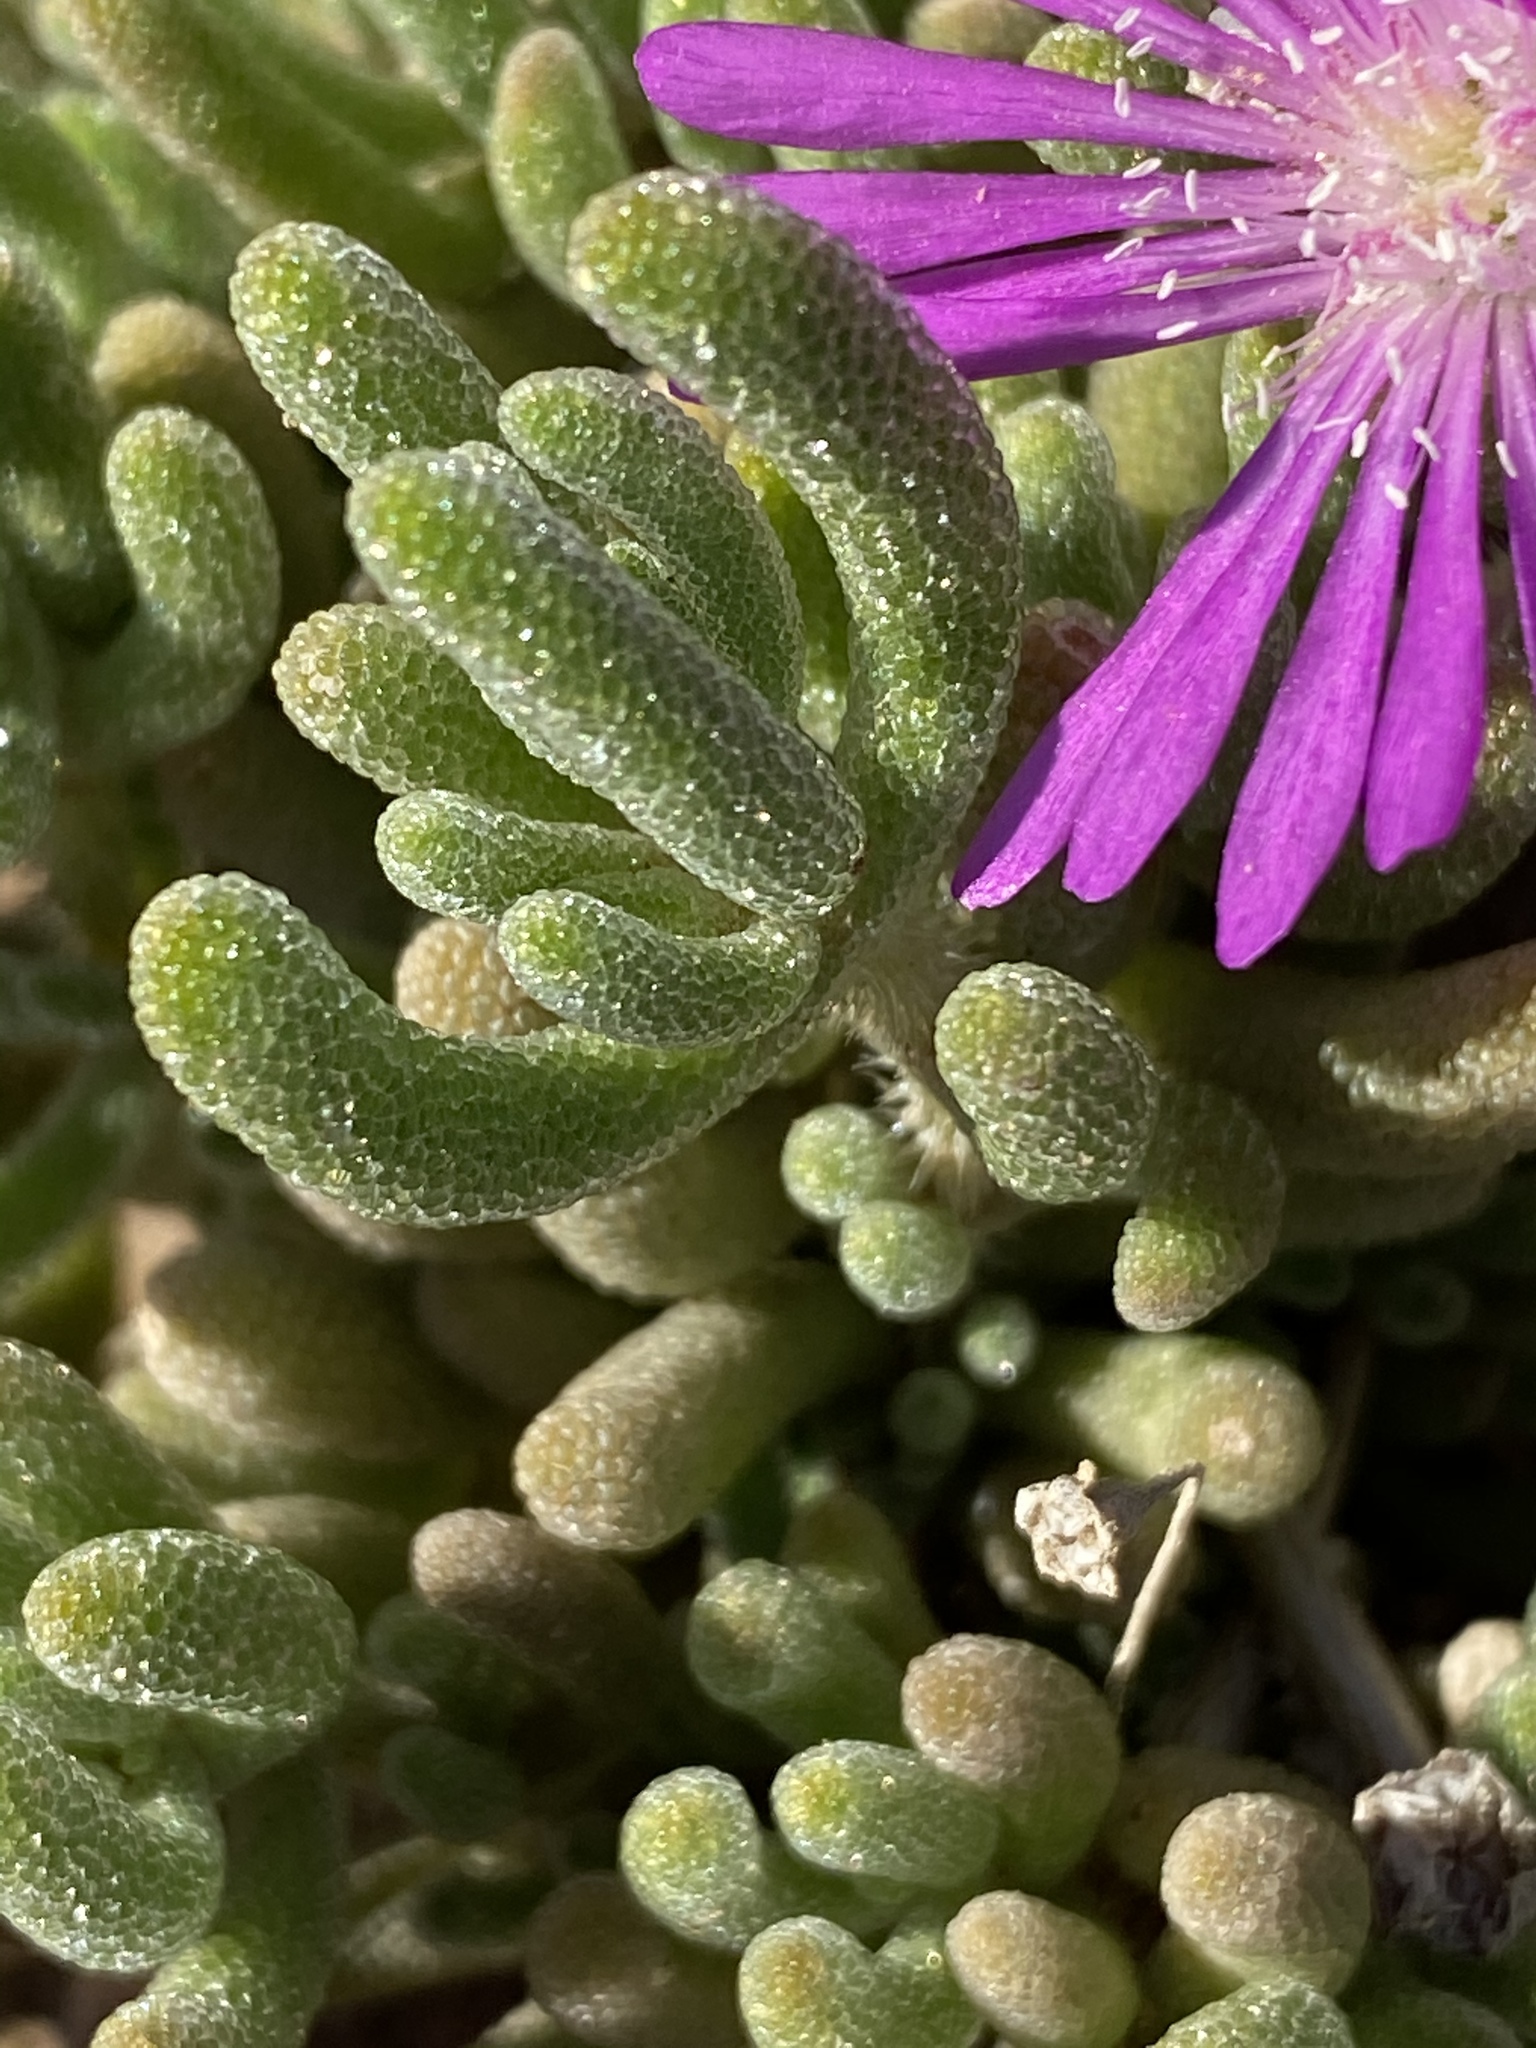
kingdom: Plantae
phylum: Tracheophyta
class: Magnoliopsida
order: Caryophyllales
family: Aizoaceae
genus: Drosanthemum
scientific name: Drosanthemum archeri
